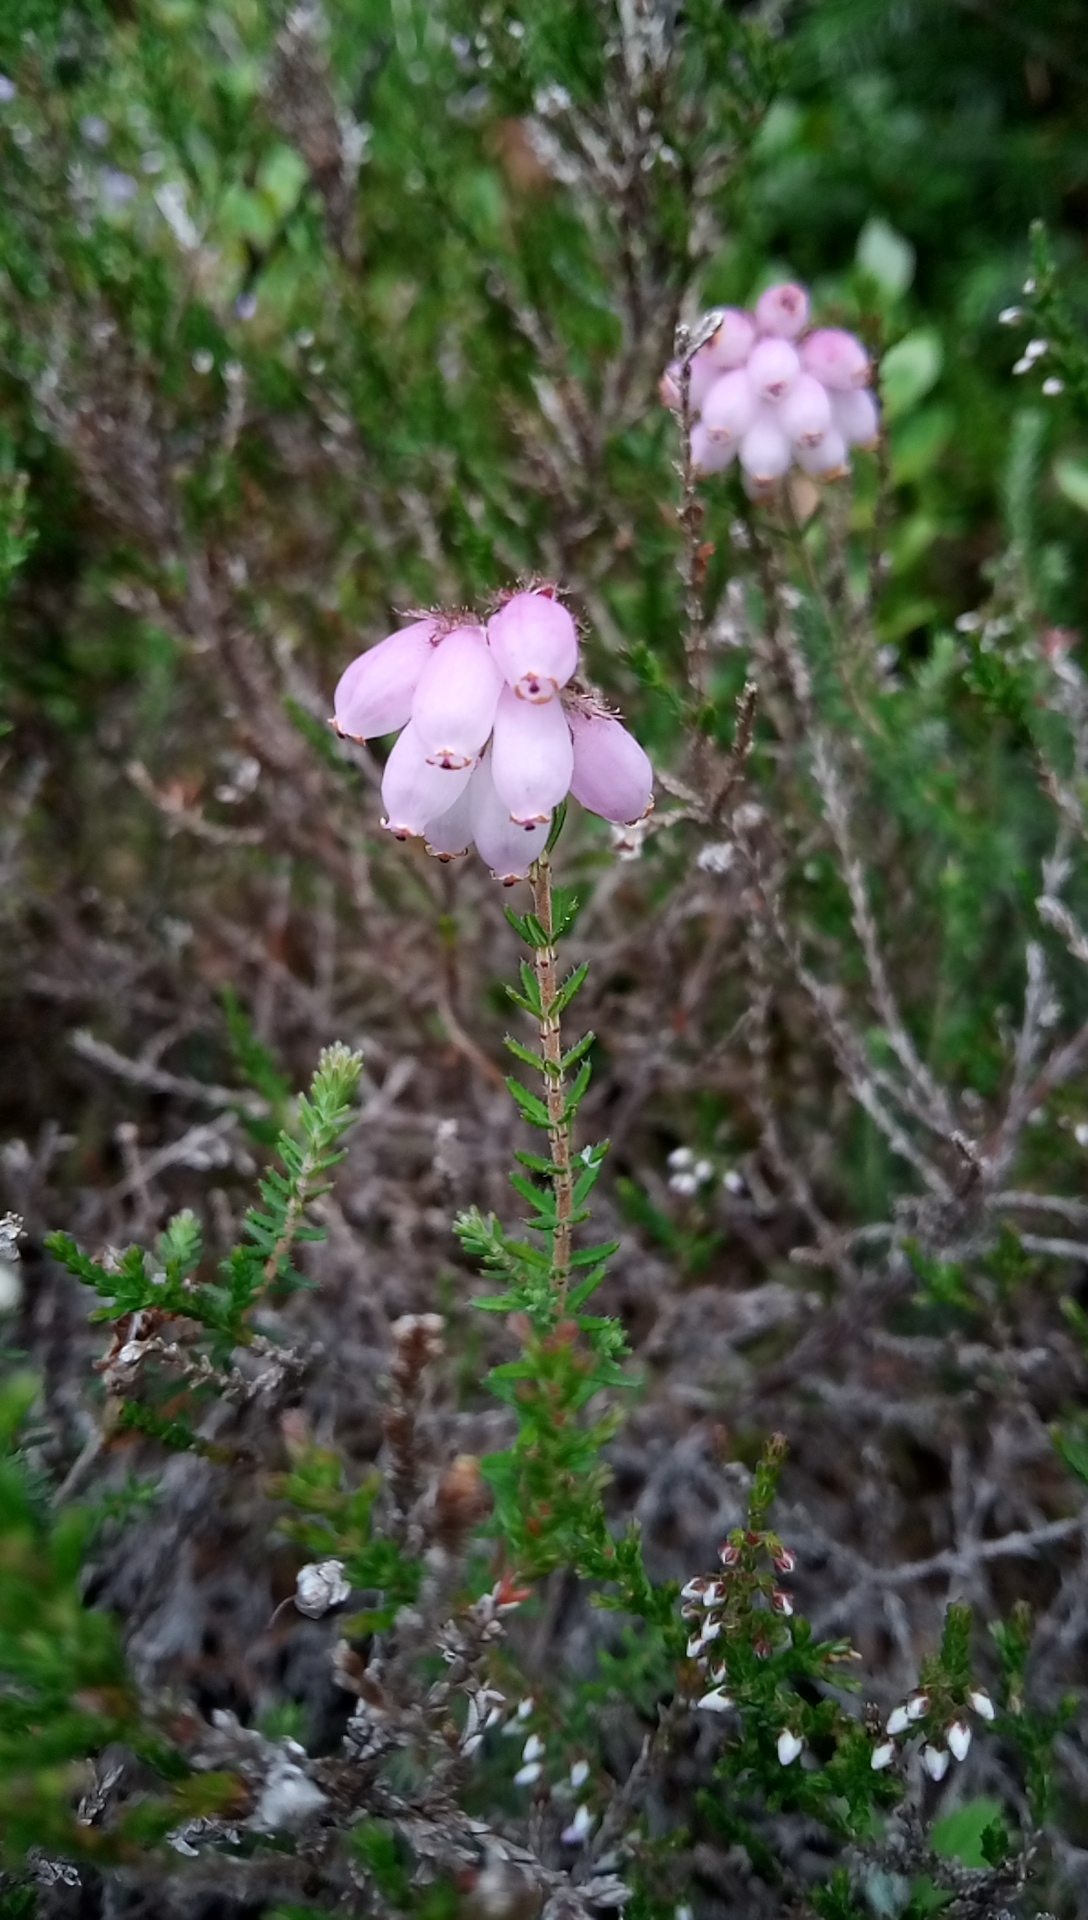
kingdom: Plantae
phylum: Tracheophyta
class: Magnoliopsida
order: Ericales
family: Ericaceae
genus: Erica
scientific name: Erica tetralix
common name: Cross-leaved heath
